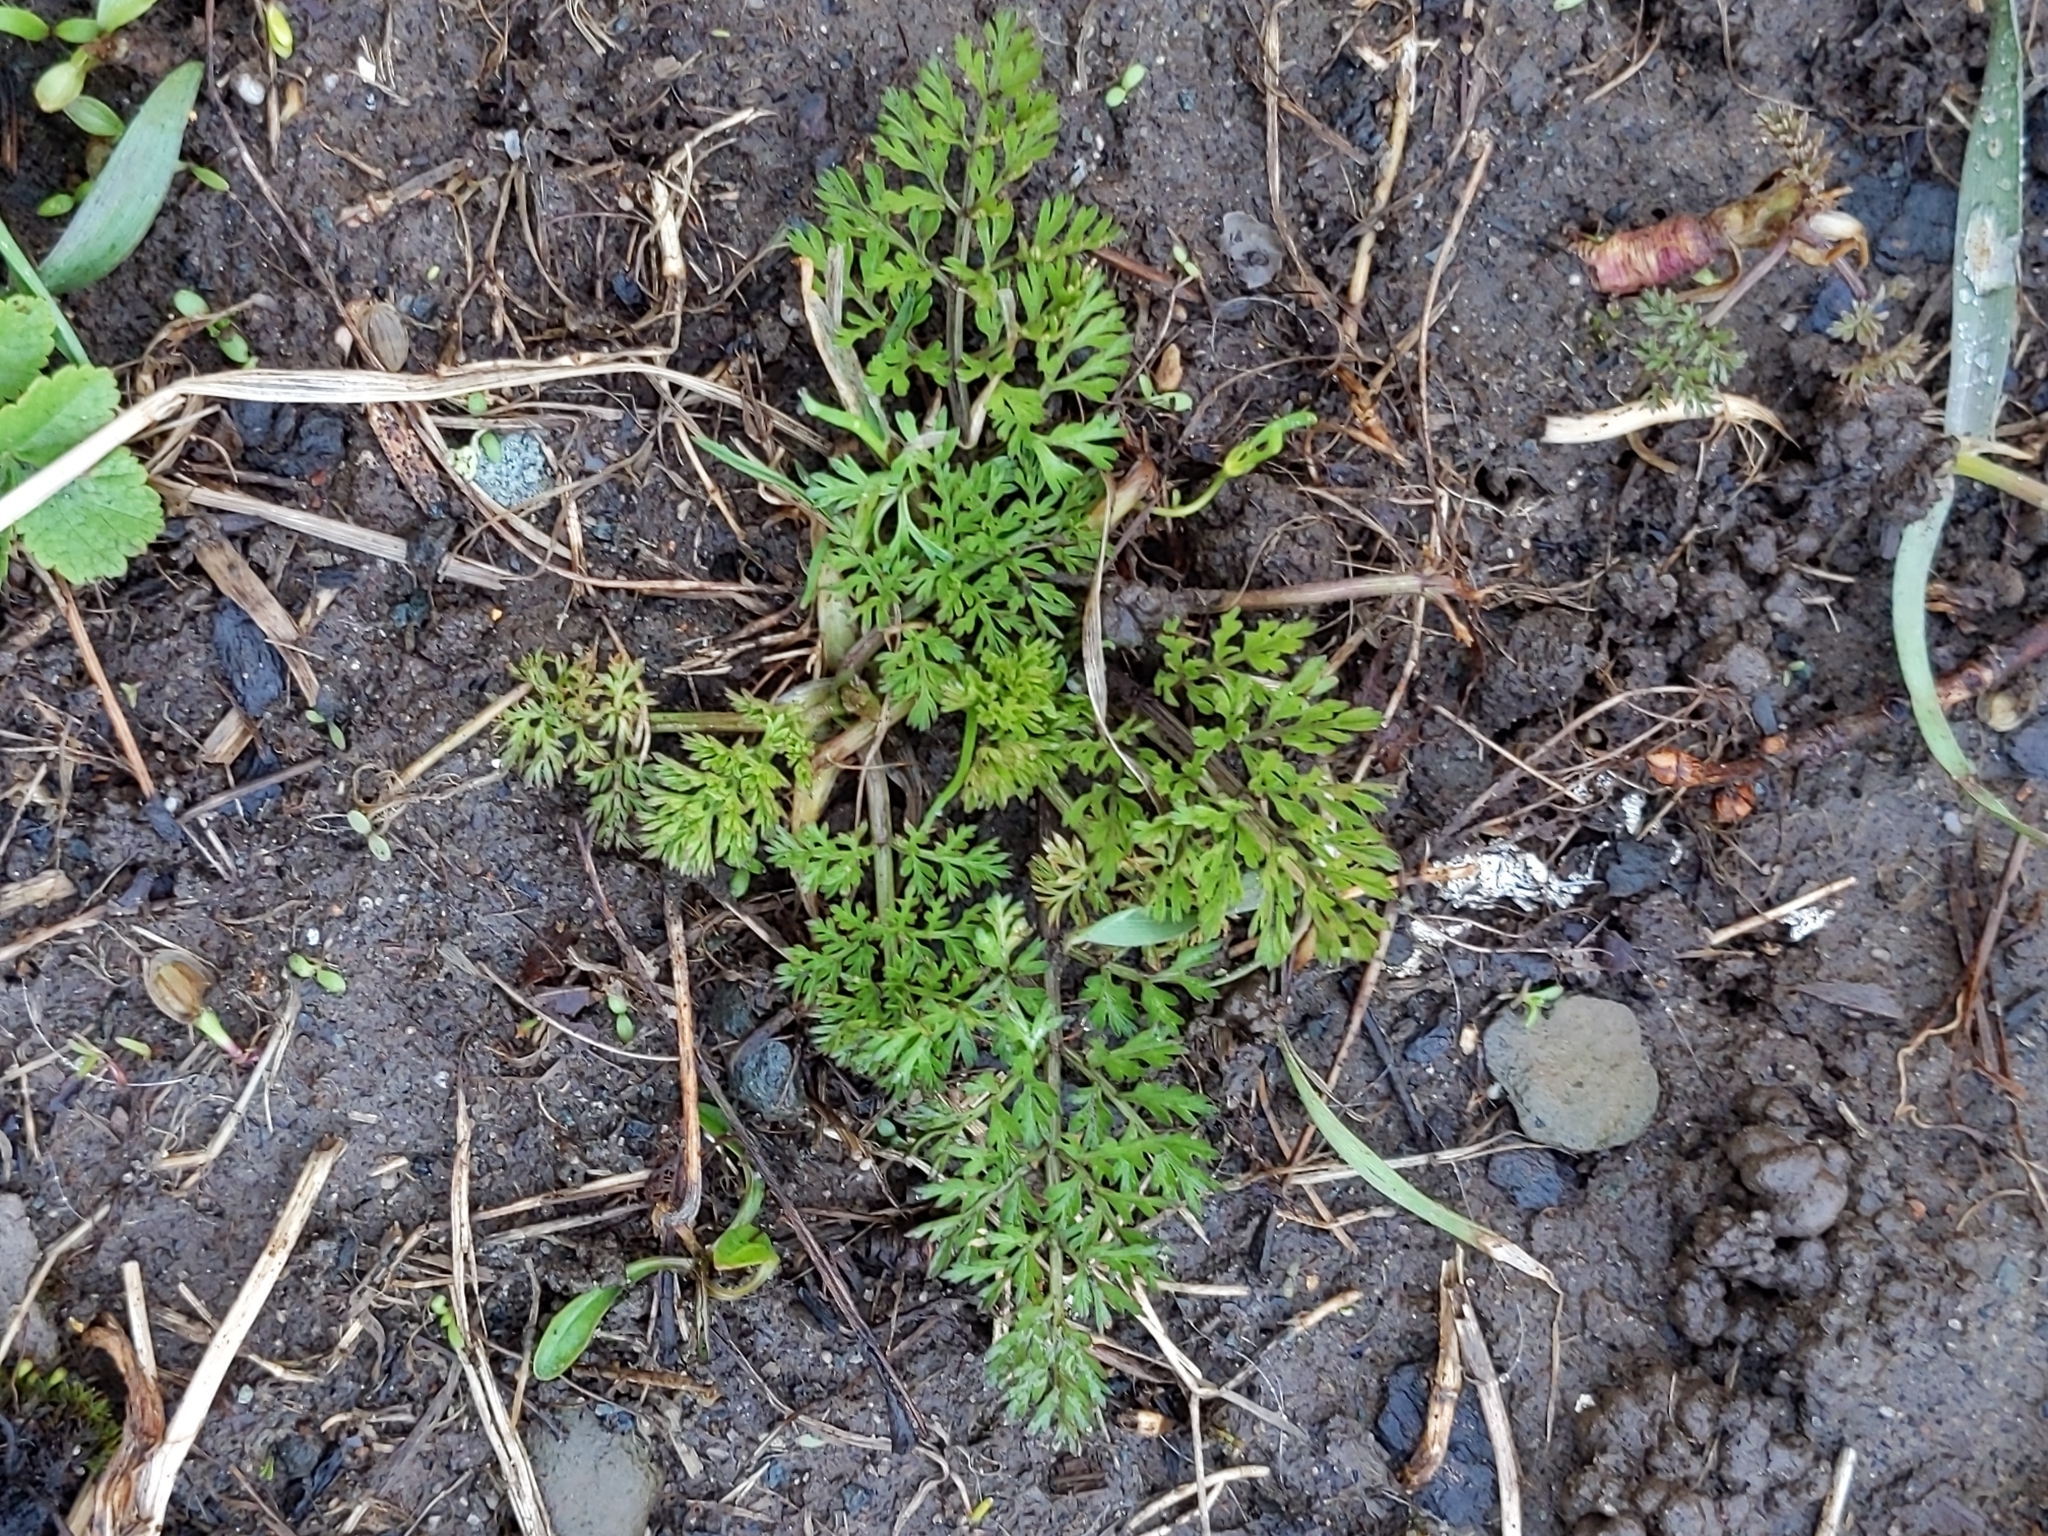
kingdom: Plantae
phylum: Tracheophyta
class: Magnoliopsida
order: Apiales
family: Apiaceae
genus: Daucus
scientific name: Daucus carota
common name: Wild carrot
